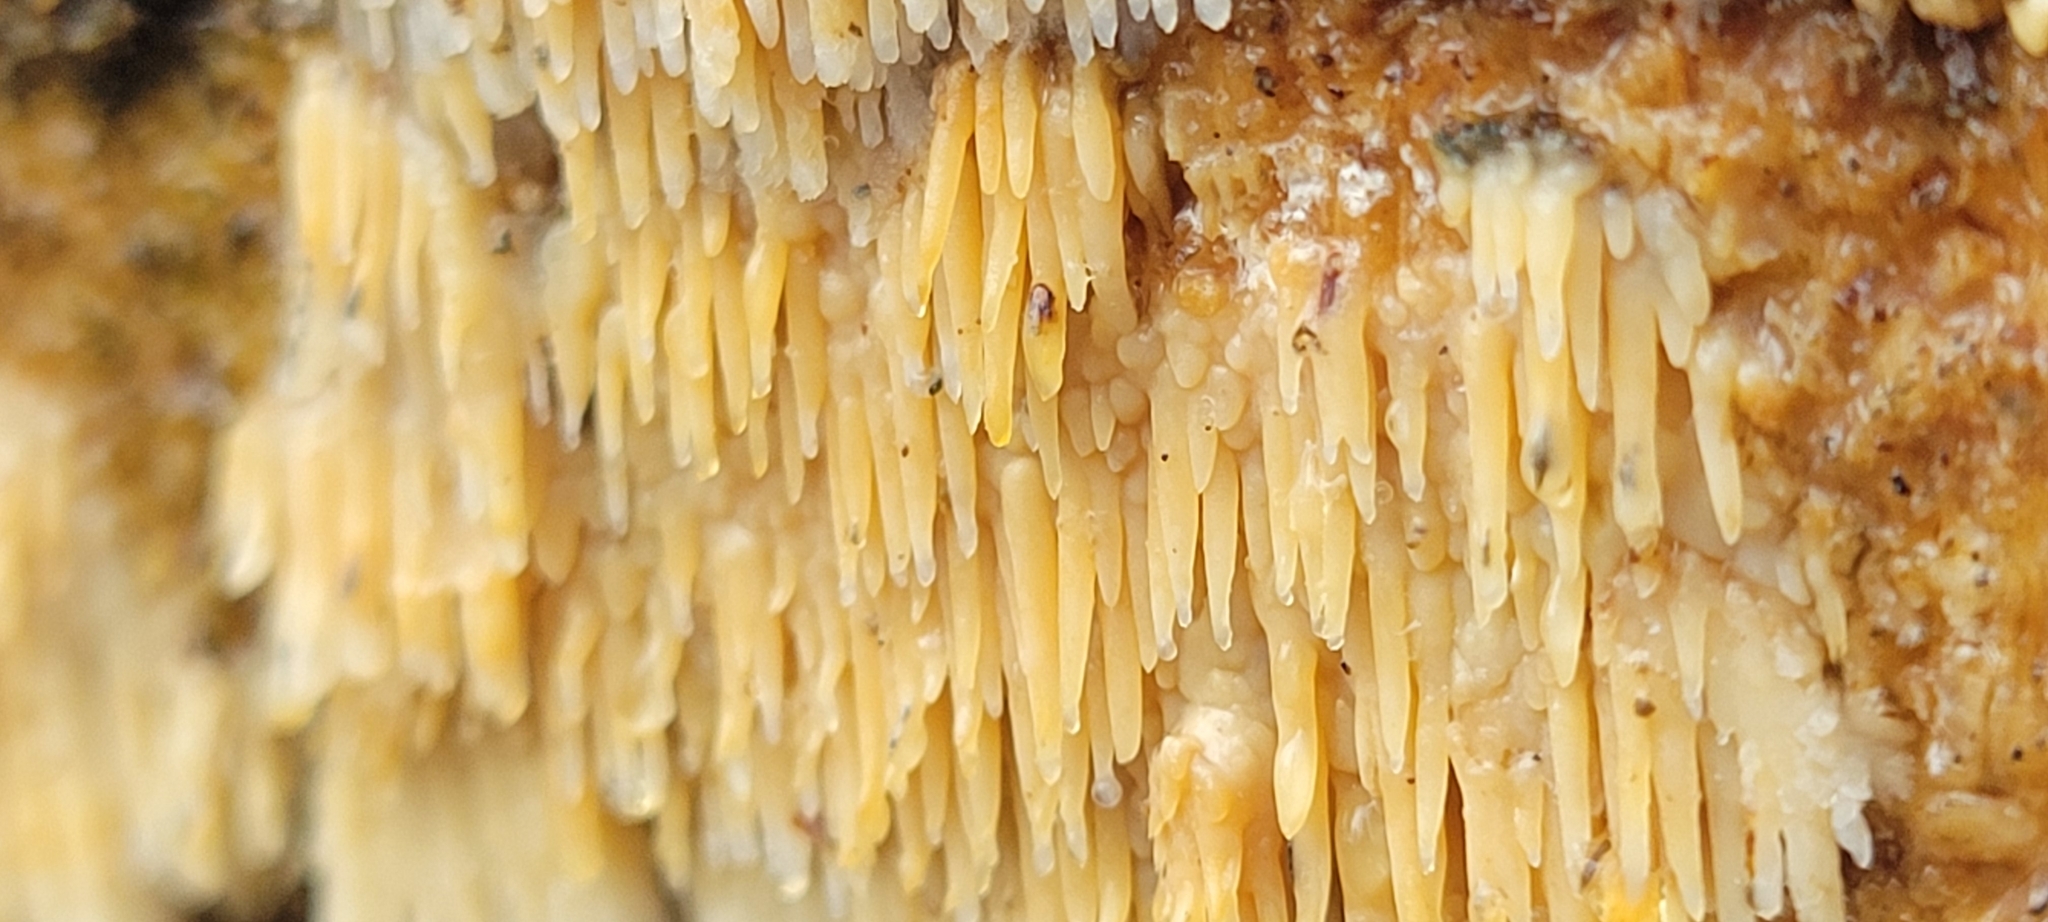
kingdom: Fungi
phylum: Basidiomycota
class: Agaricomycetes
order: Agaricales
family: Radulomycetaceae
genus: Radulomyces
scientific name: Radulomyces copelandii
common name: Asian beauty
